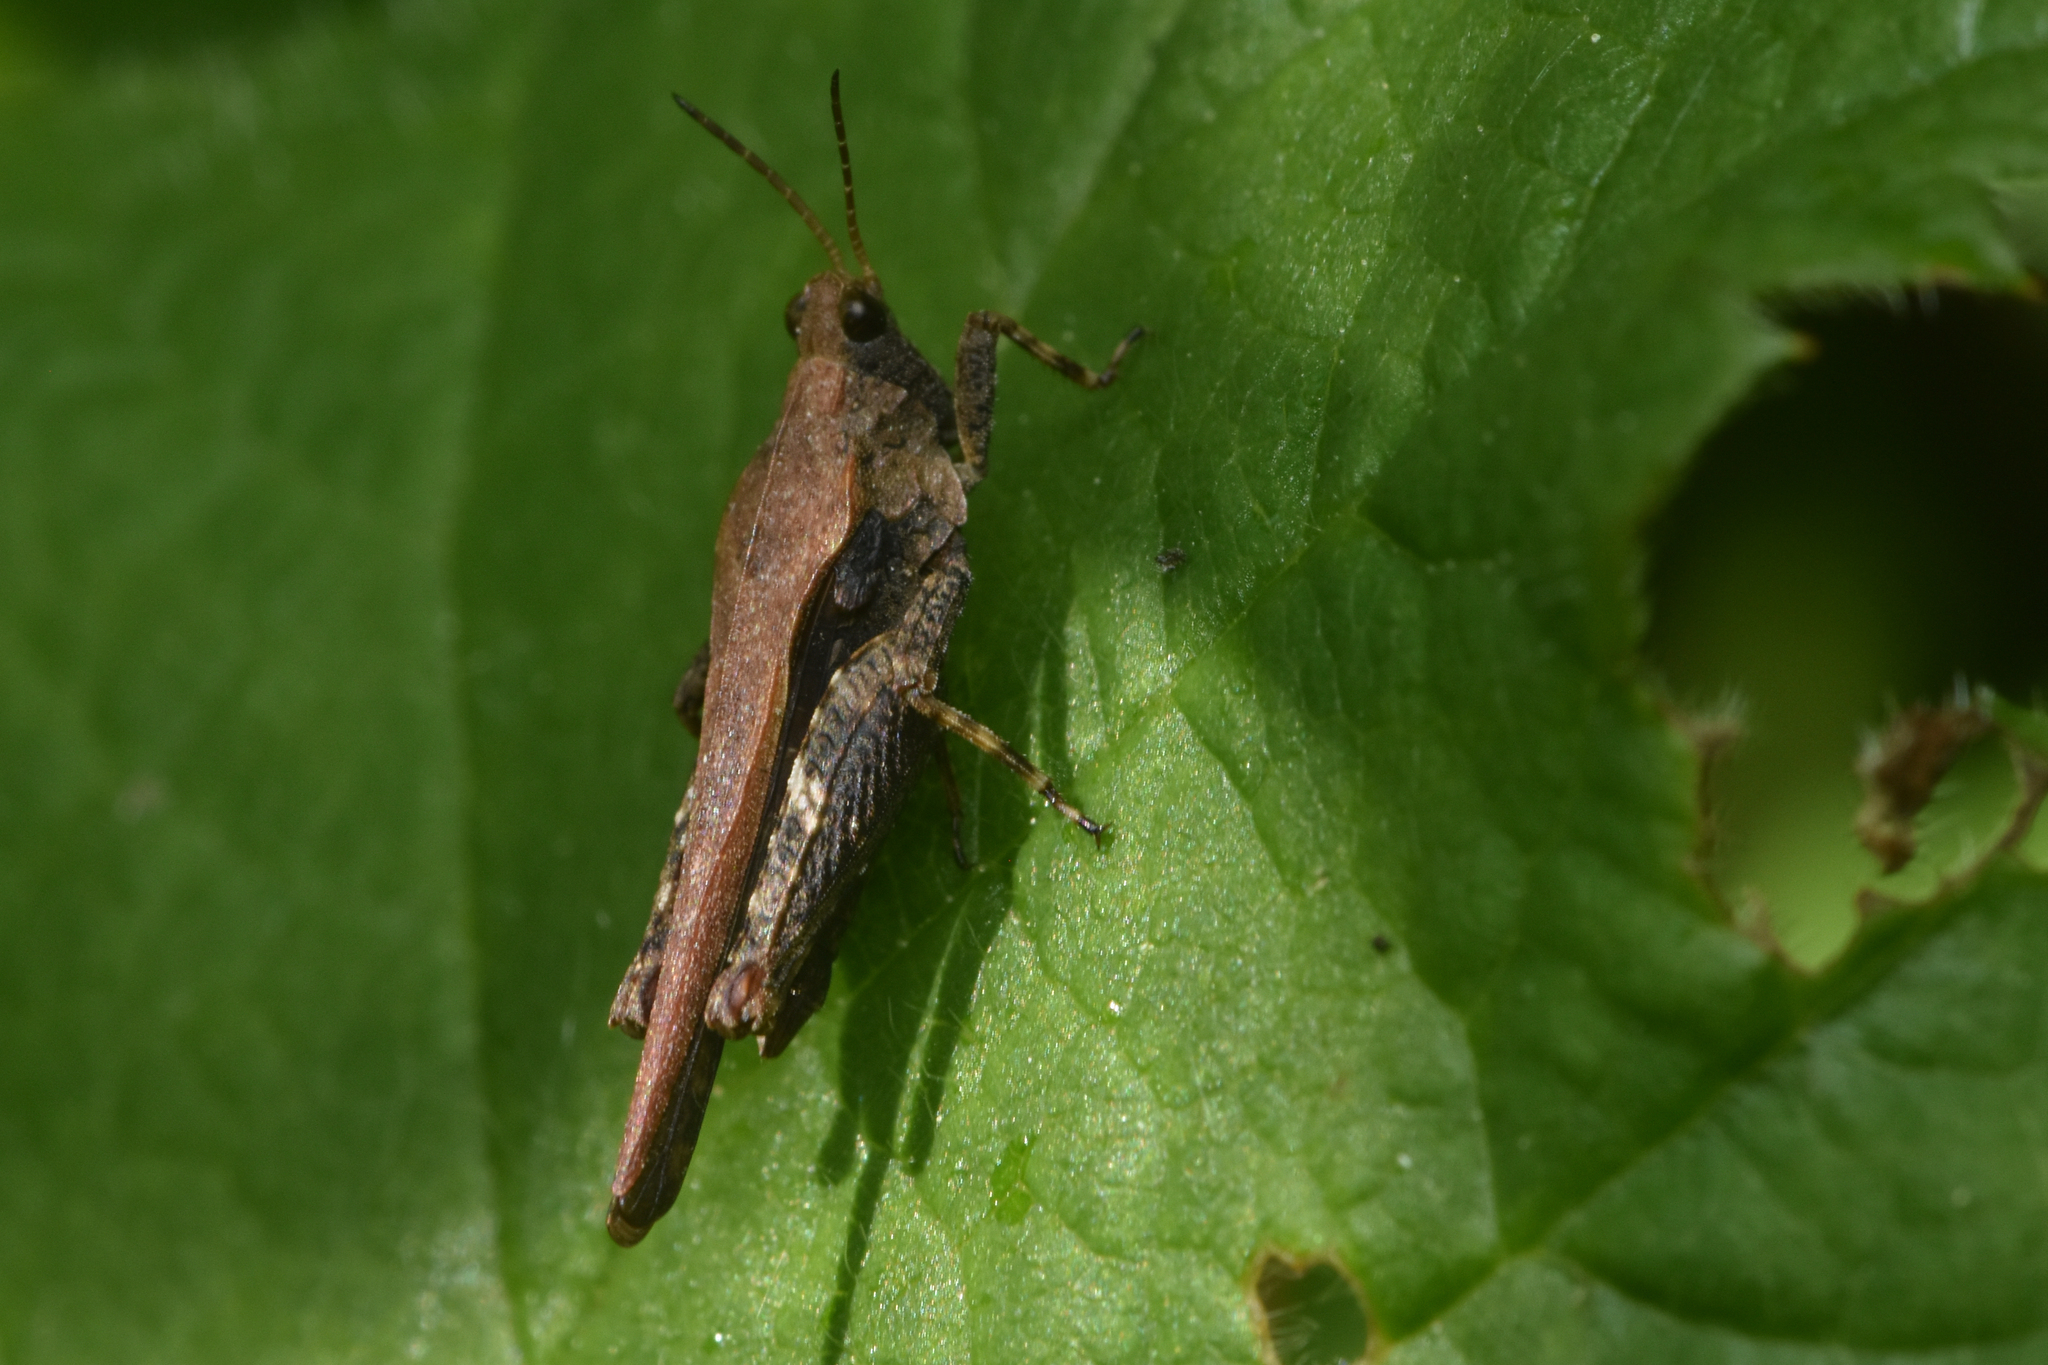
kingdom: Animalia
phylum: Arthropoda
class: Insecta
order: Orthoptera
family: Tetrigidae
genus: Tetrix
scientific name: Tetrix subulata
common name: Slender ground-hopper
